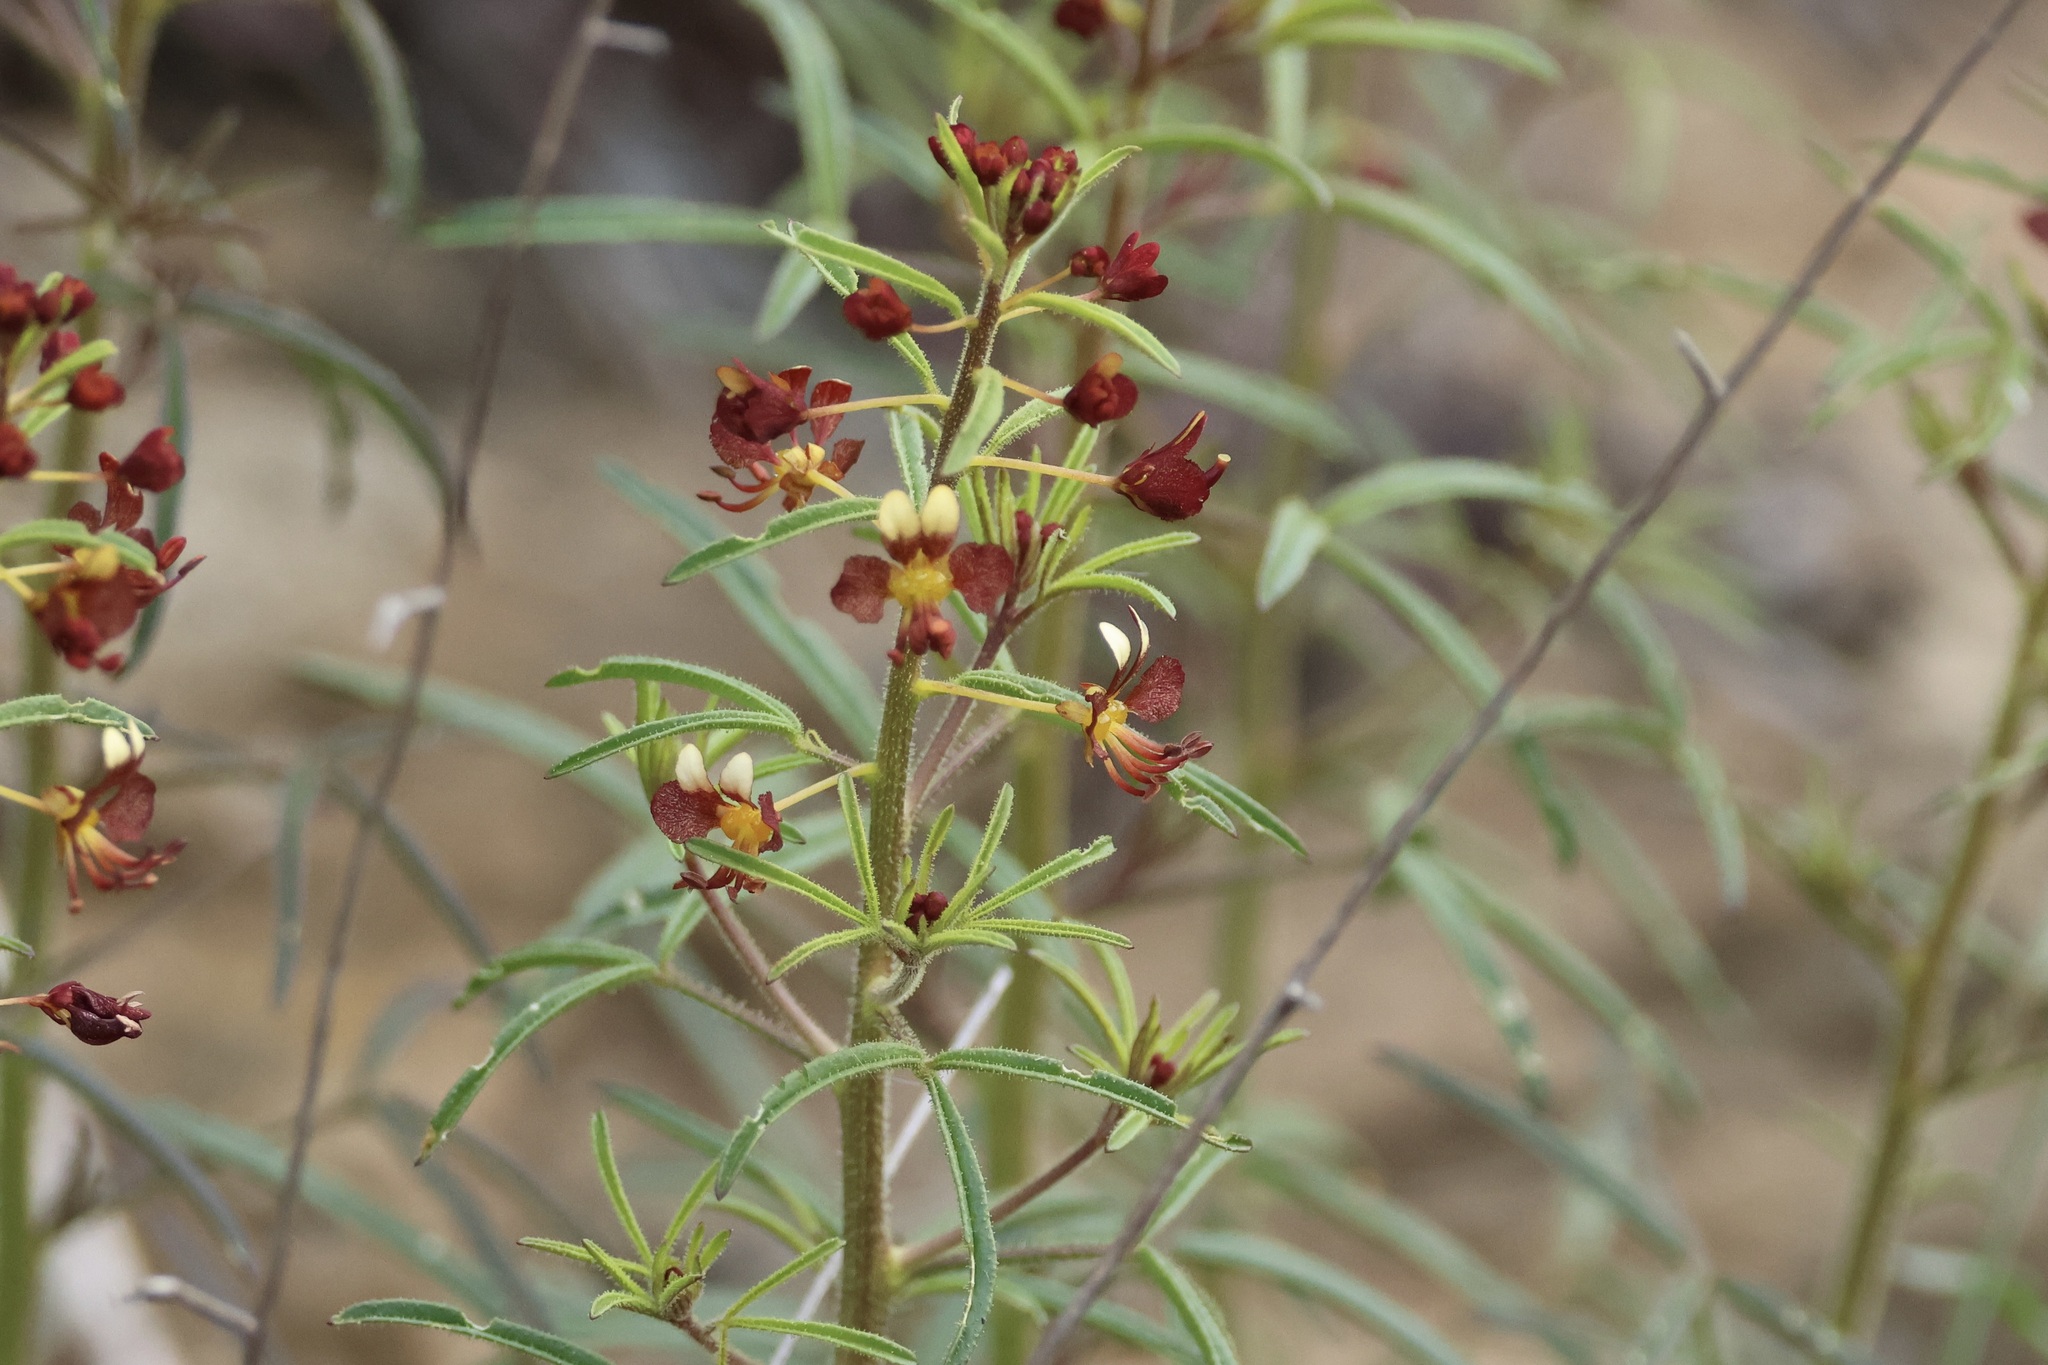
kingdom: Plantae
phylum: Tracheophyta
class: Magnoliopsida
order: Brassicales
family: Cleomaceae
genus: Cleome
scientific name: Cleome violacea
